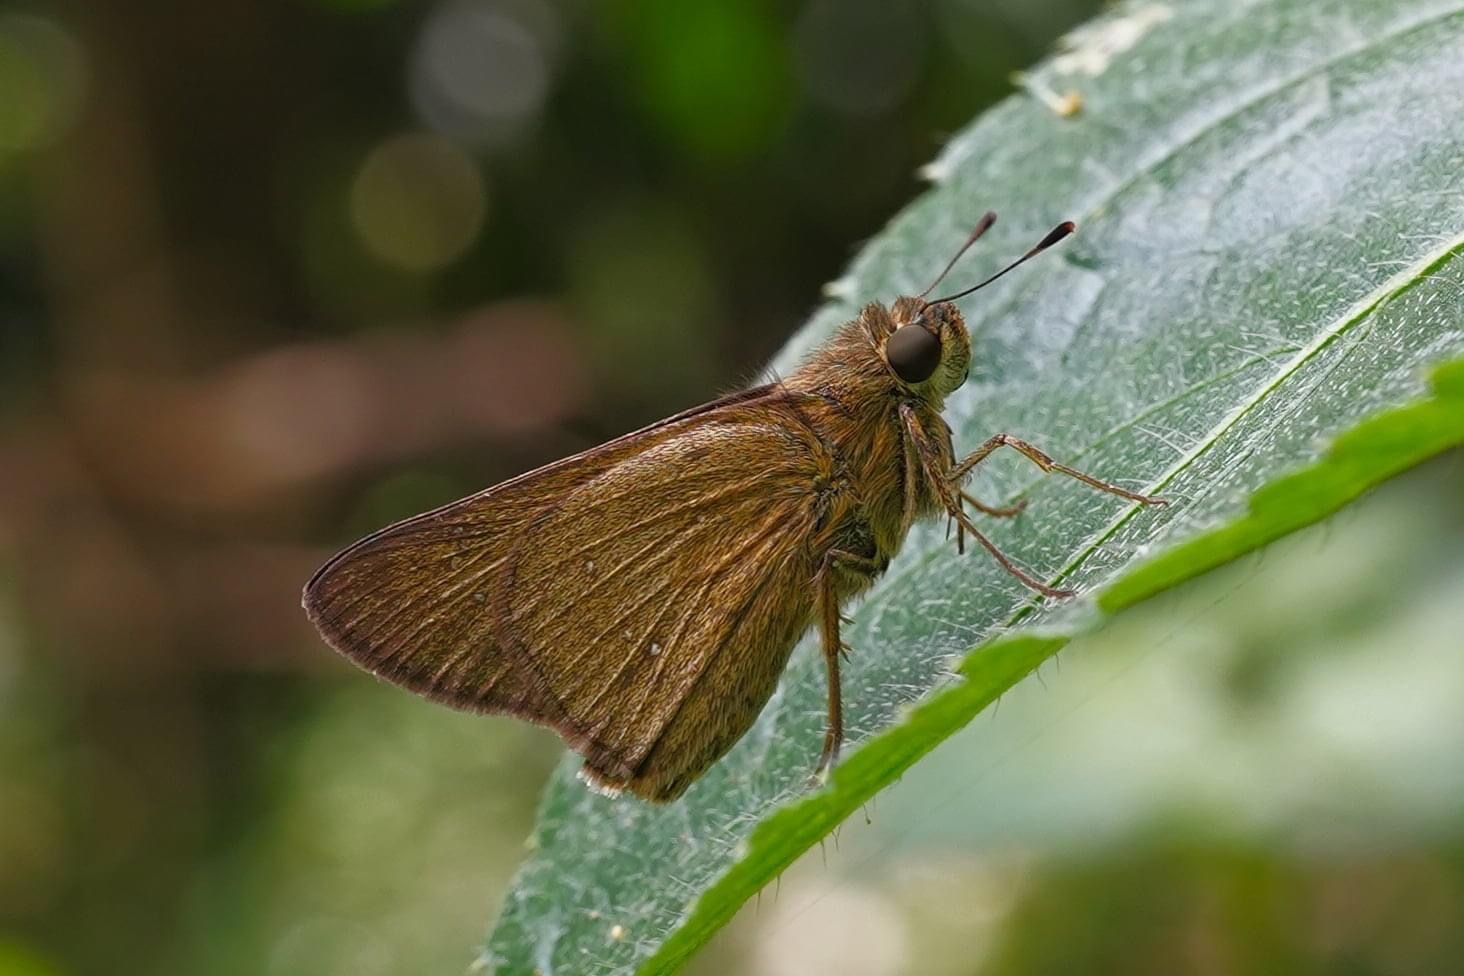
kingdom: Animalia
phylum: Arthropoda
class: Insecta
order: Lepidoptera
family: Hesperiidae
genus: Borbo
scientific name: Borbo cinnara
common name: Formosan swift
